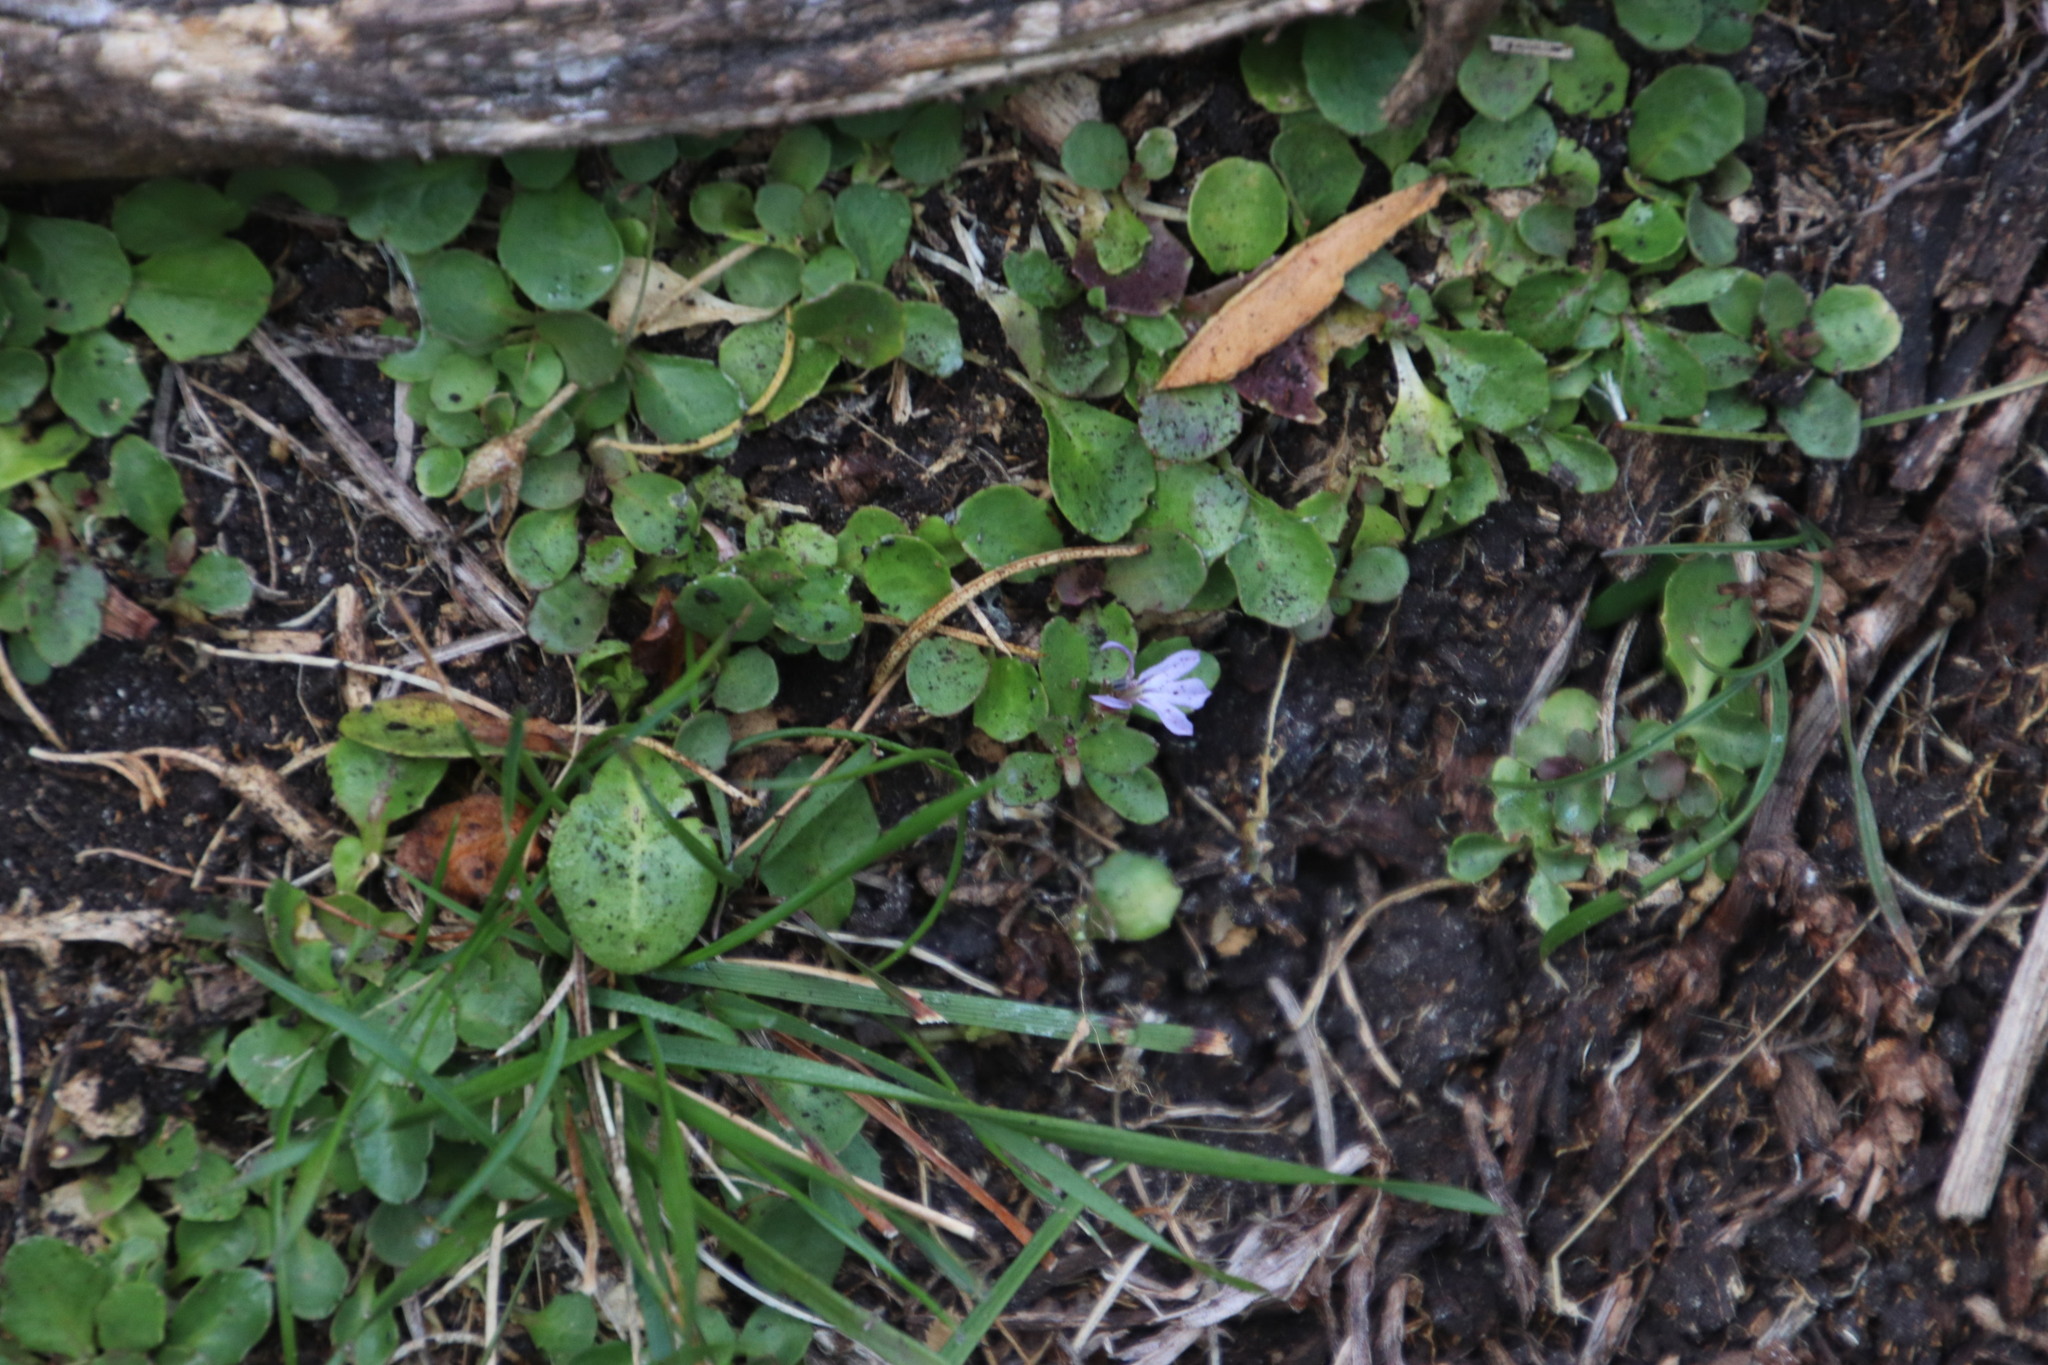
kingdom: Plantae
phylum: Tracheophyta
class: Magnoliopsida
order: Asterales
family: Campanulaceae
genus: Lobelia
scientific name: Lobelia anceps
